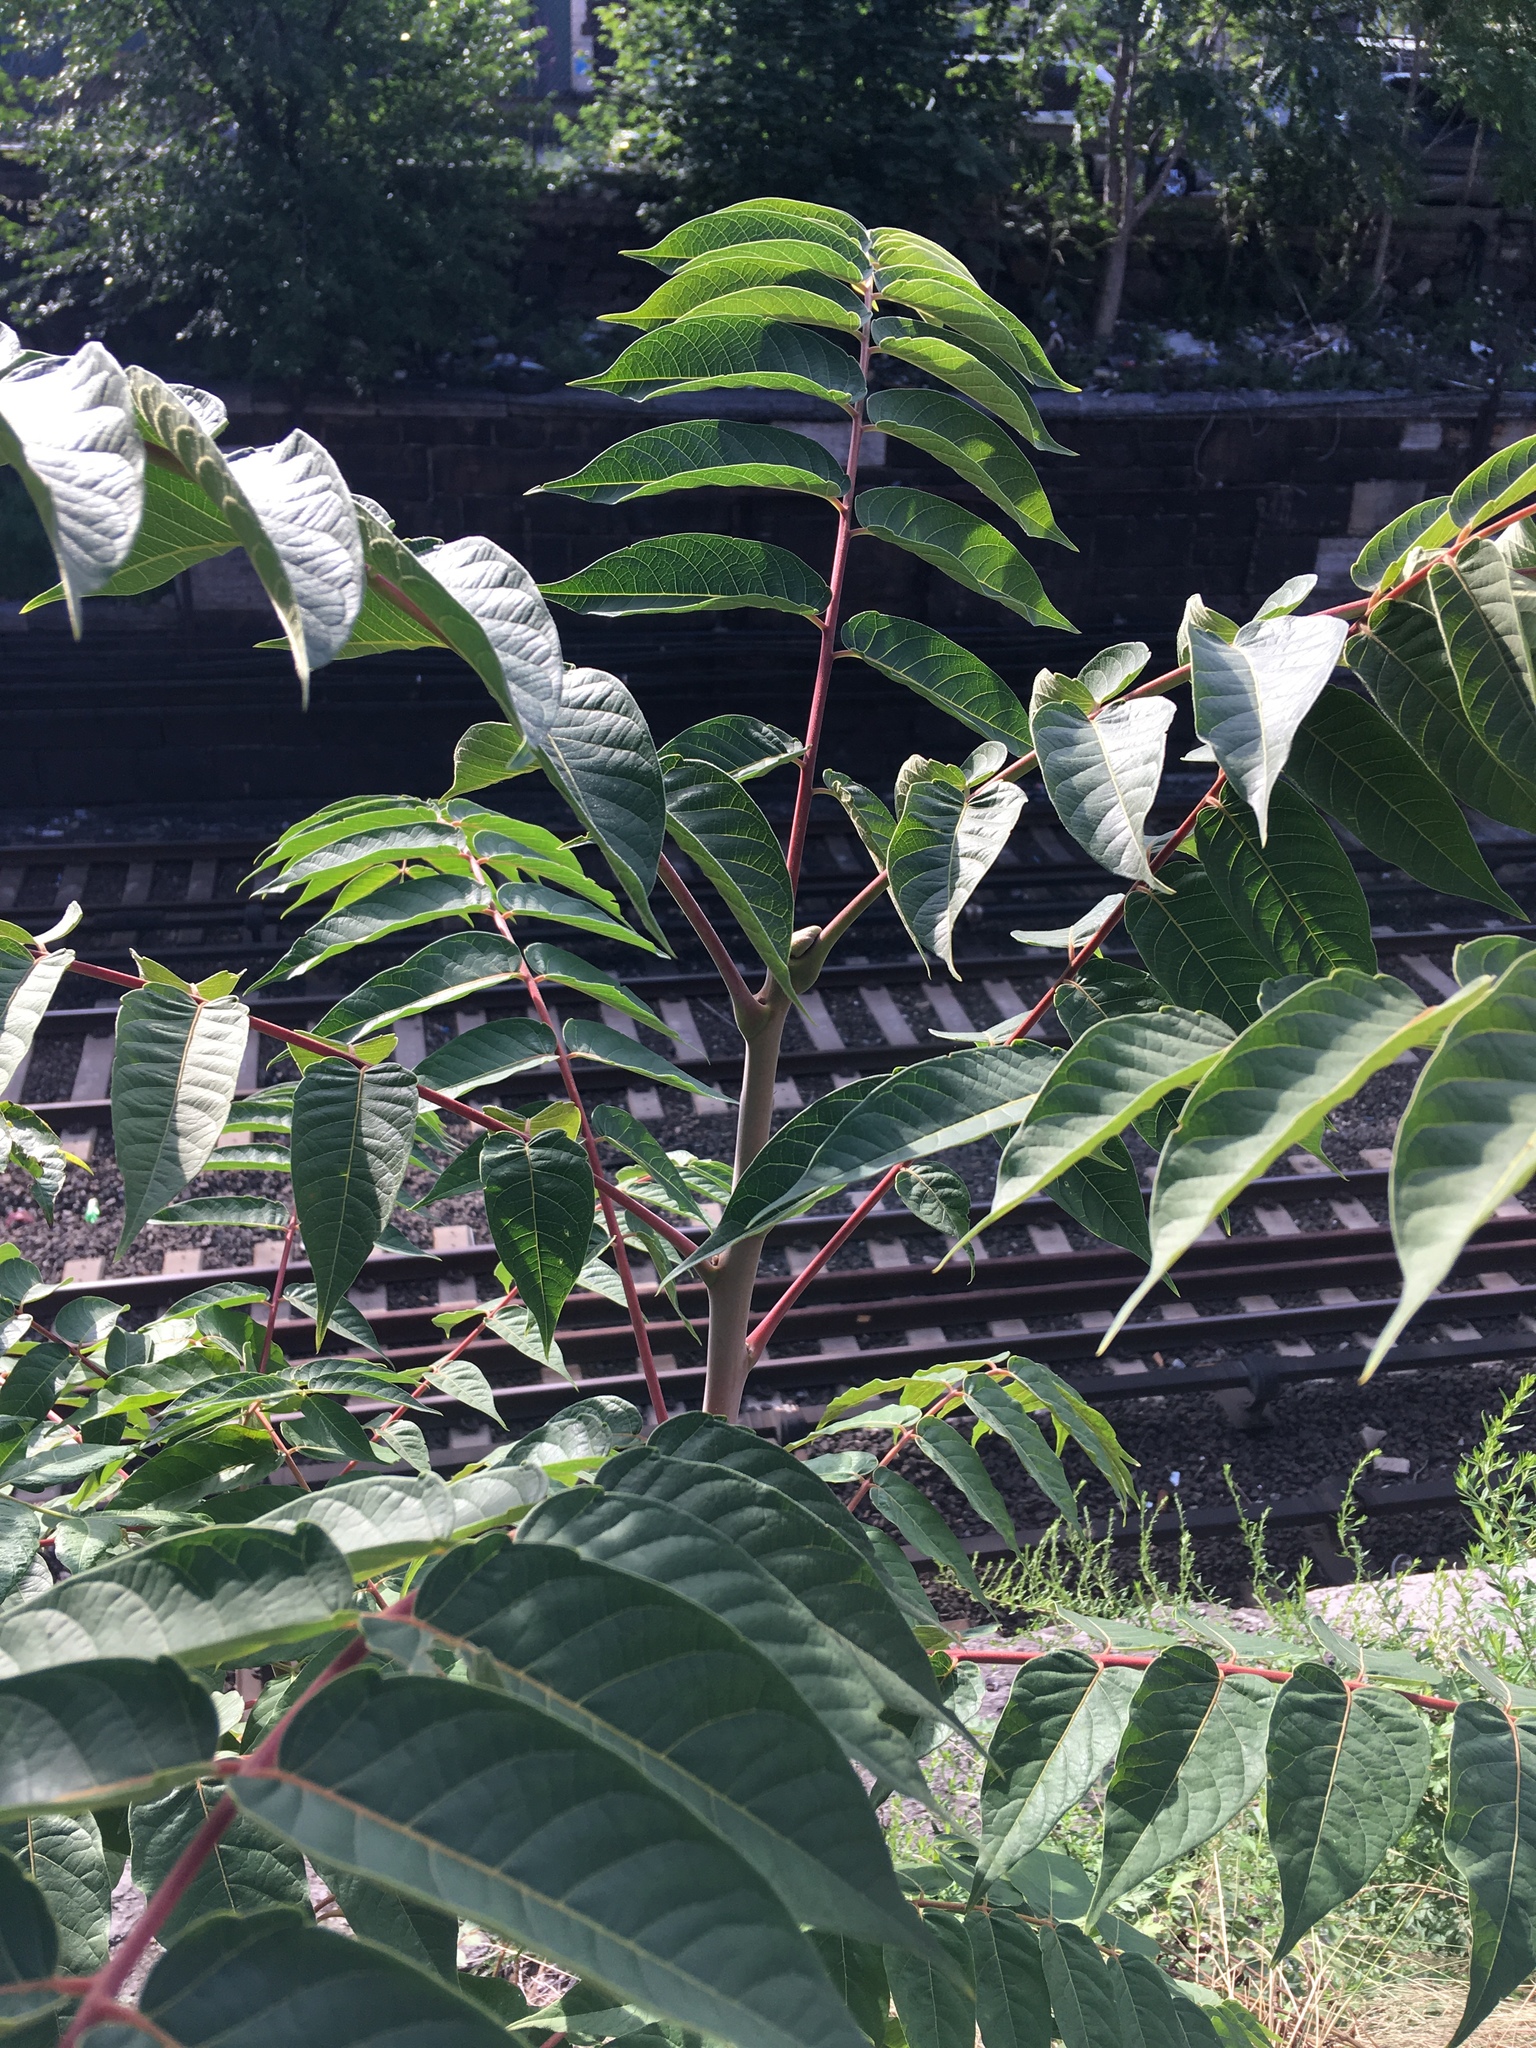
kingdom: Plantae
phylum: Tracheophyta
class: Magnoliopsida
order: Sapindales
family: Simaroubaceae
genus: Ailanthus
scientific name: Ailanthus altissima
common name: Tree-of-heaven
